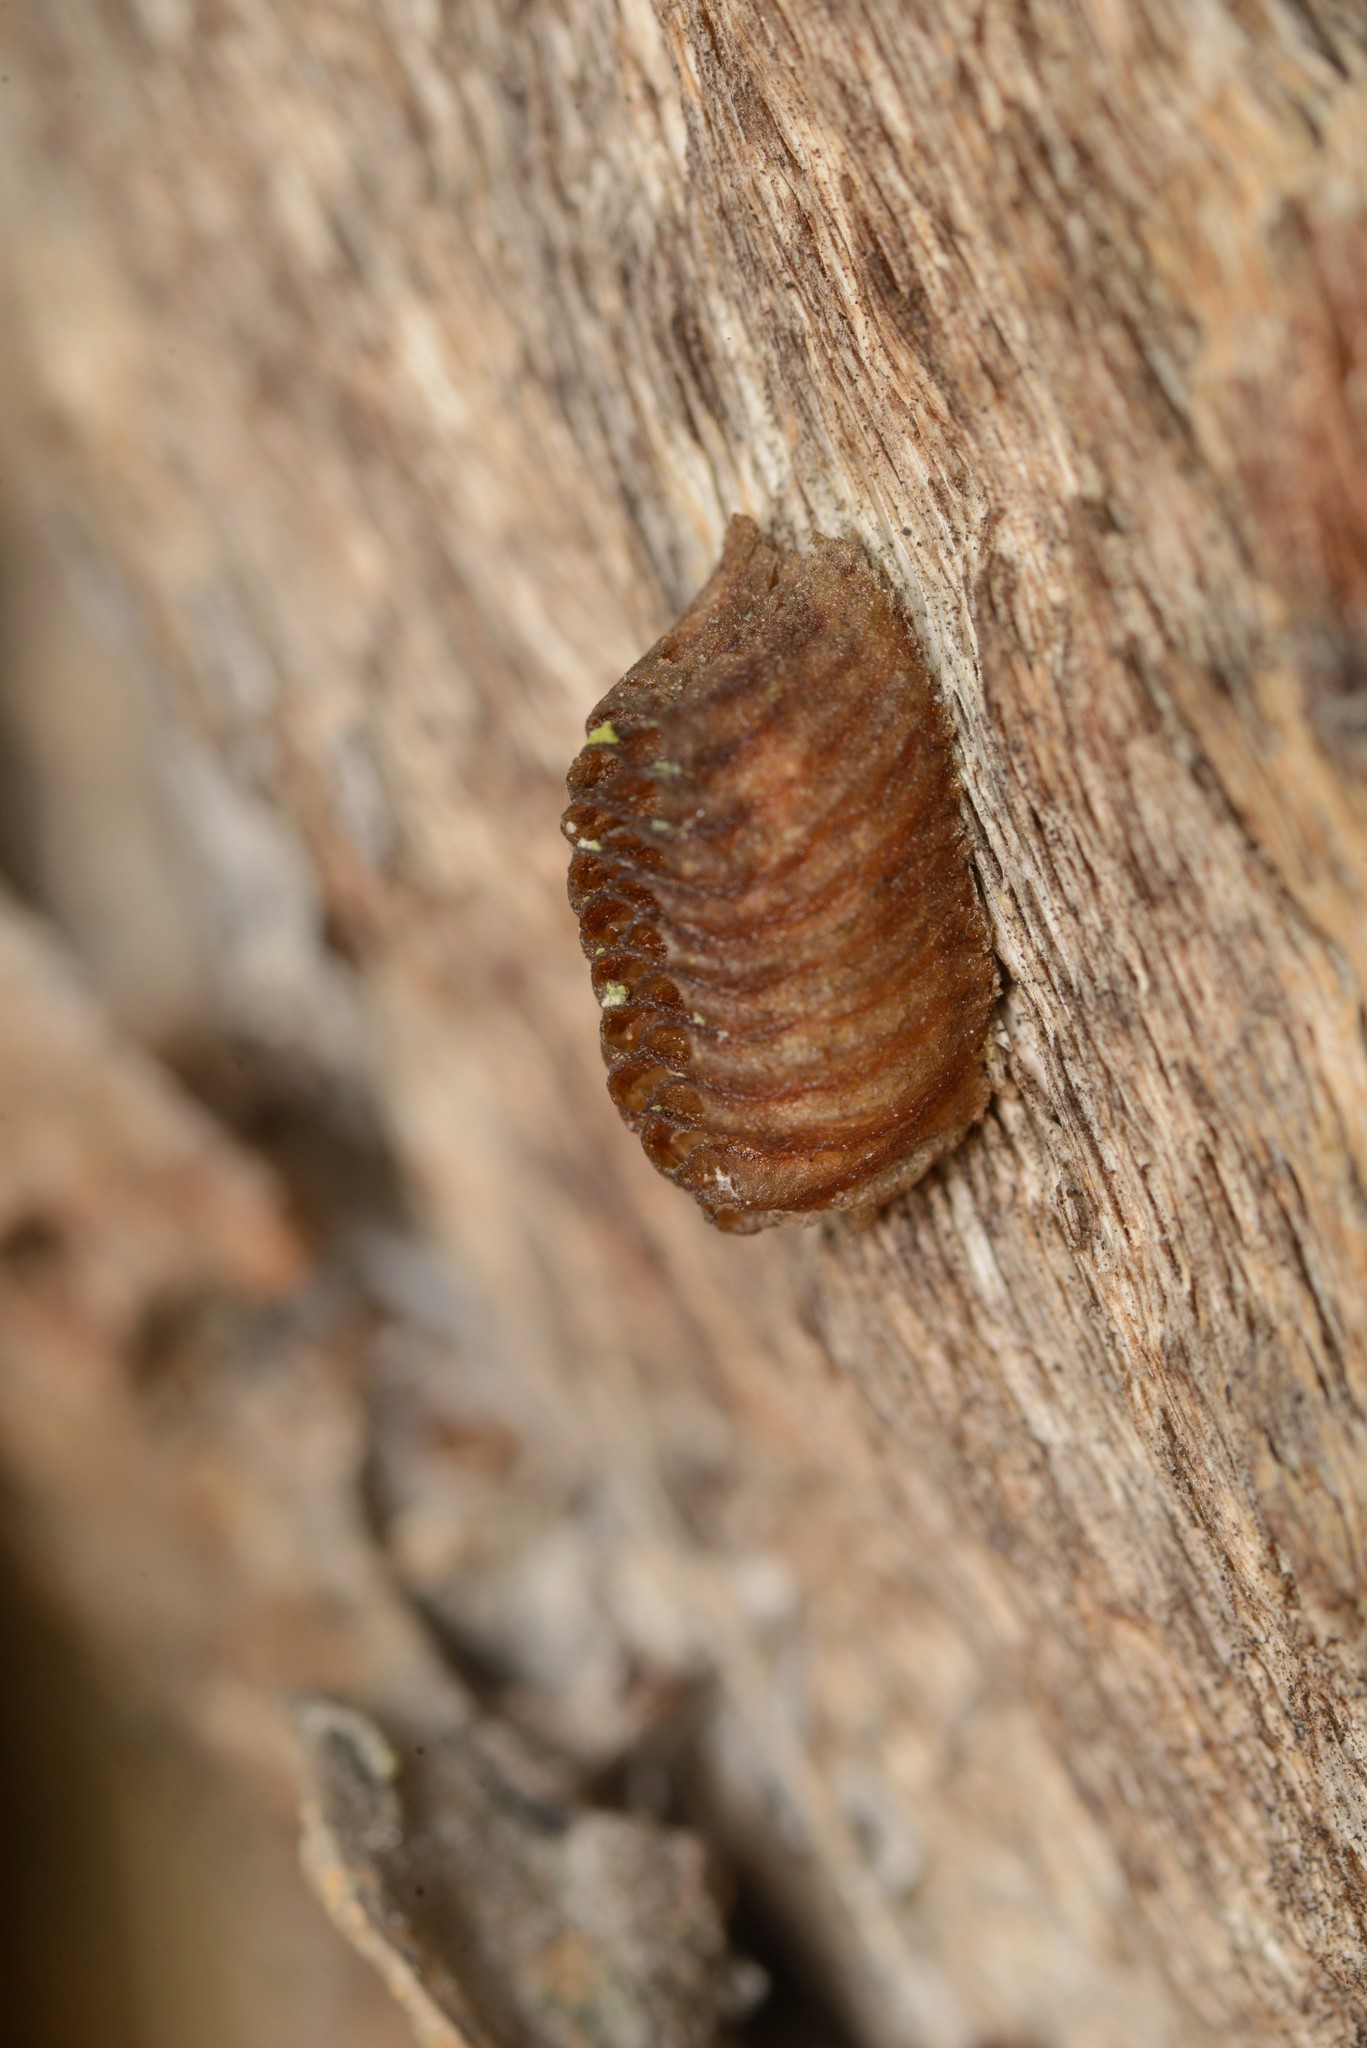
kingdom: Animalia
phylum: Arthropoda
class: Insecta
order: Mantodea
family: Mantidae
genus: Orthodera
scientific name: Orthodera novaezealandiae
